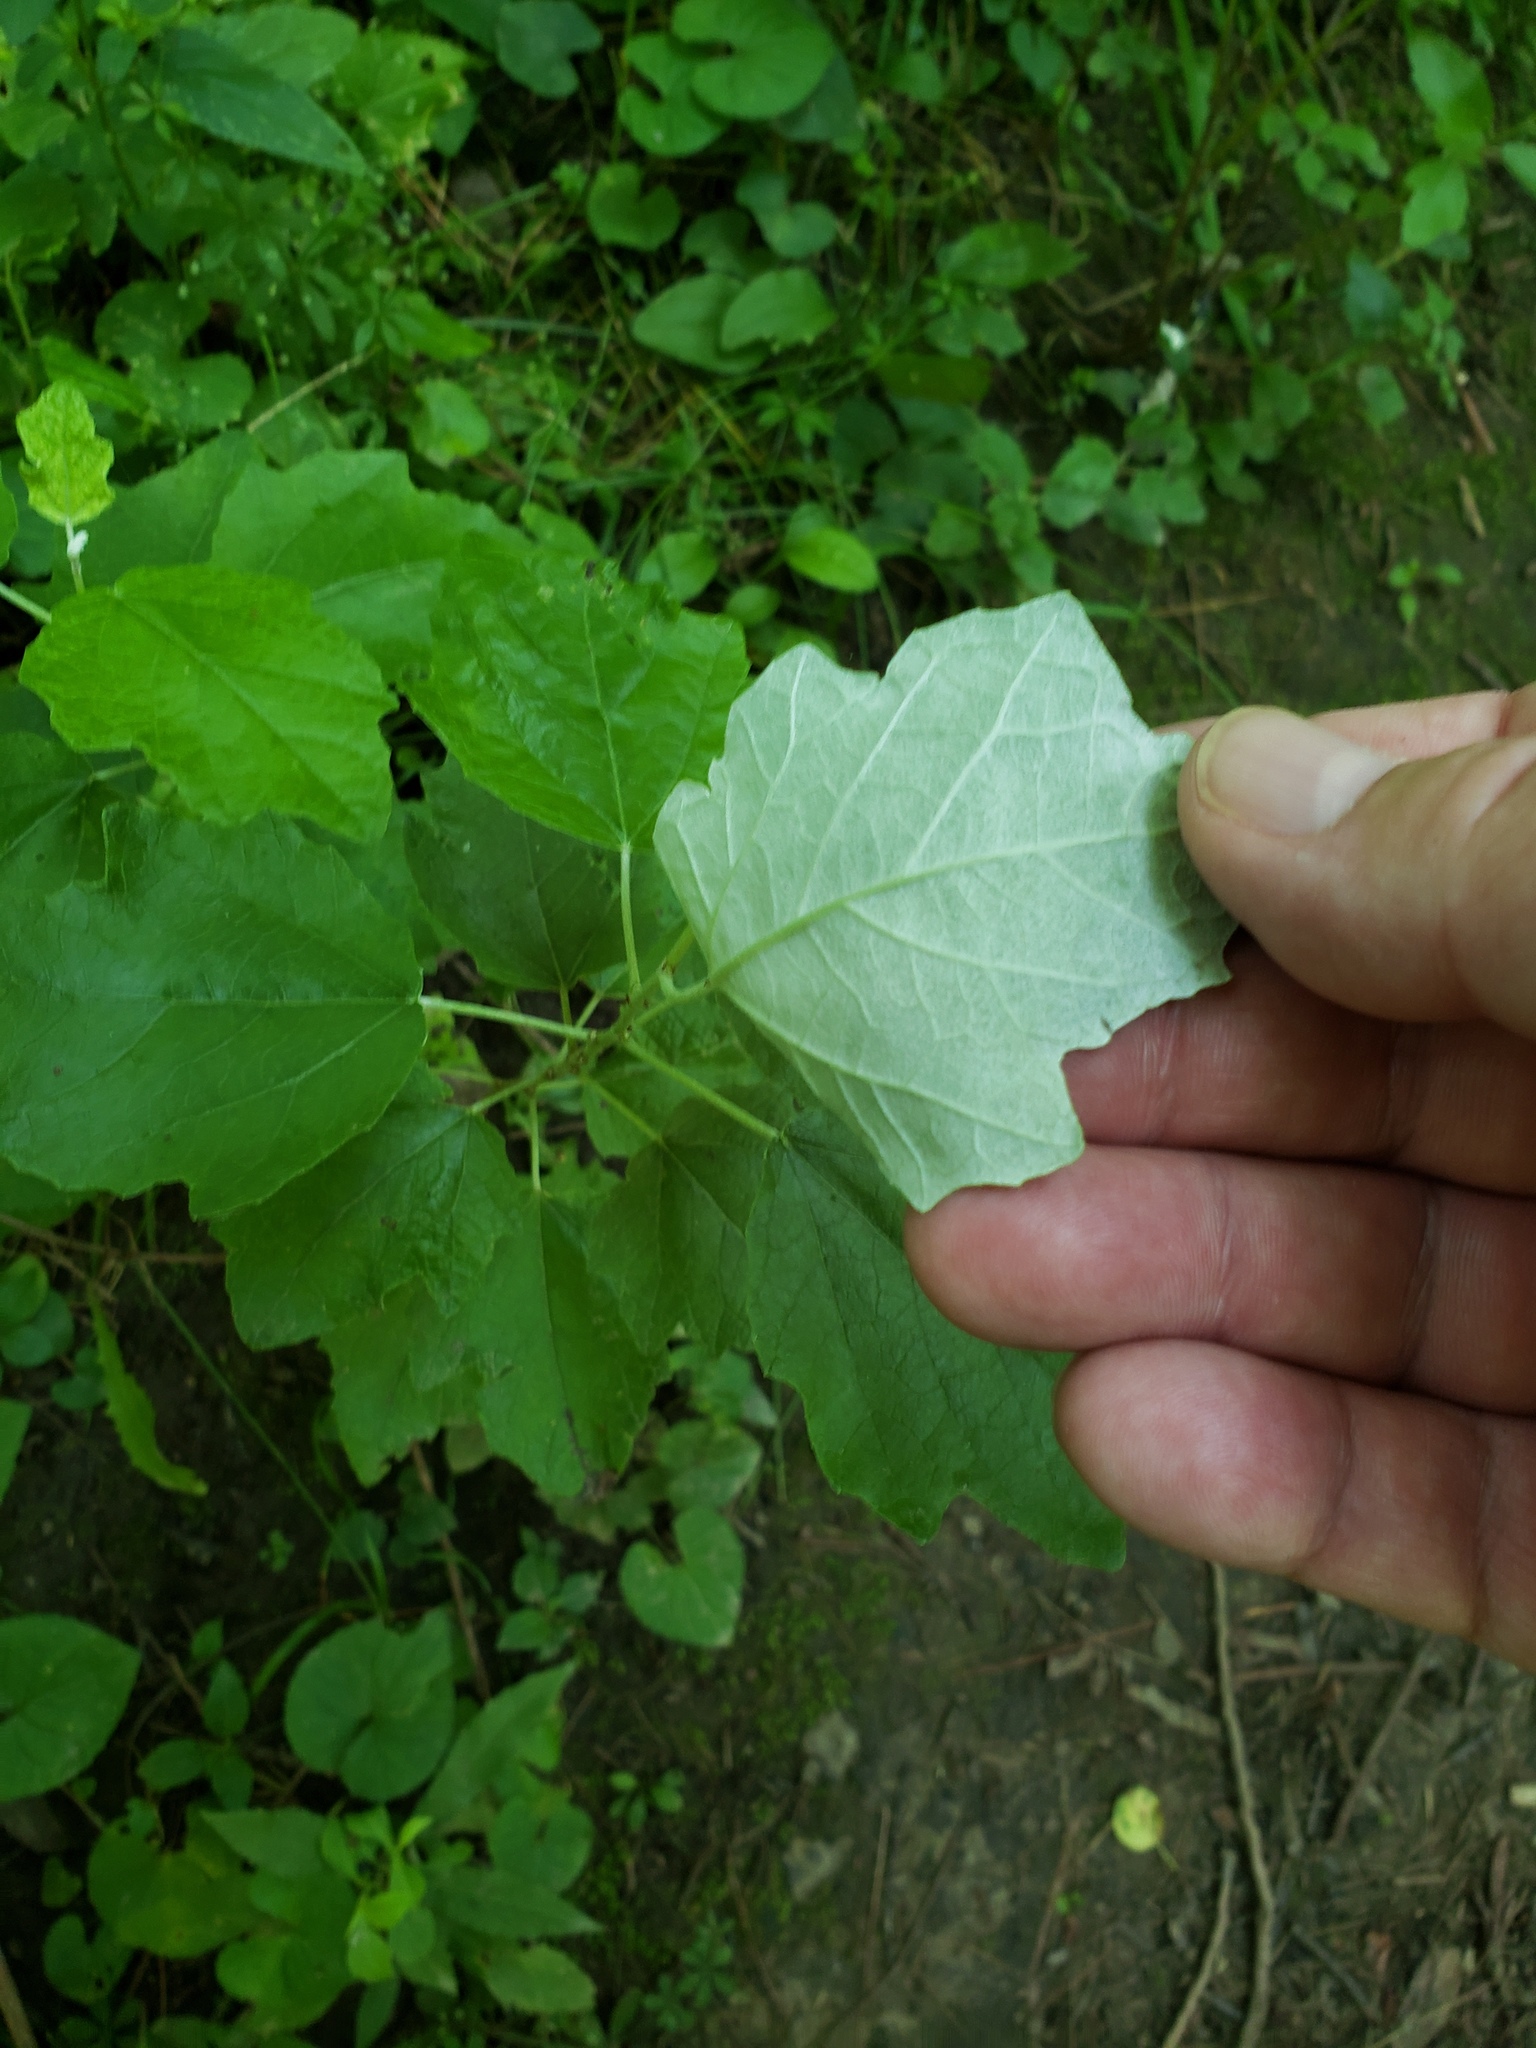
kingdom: Plantae
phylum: Tracheophyta
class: Magnoliopsida
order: Malpighiales
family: Salicaceae
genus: Populus
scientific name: Populus alba
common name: White poplar
